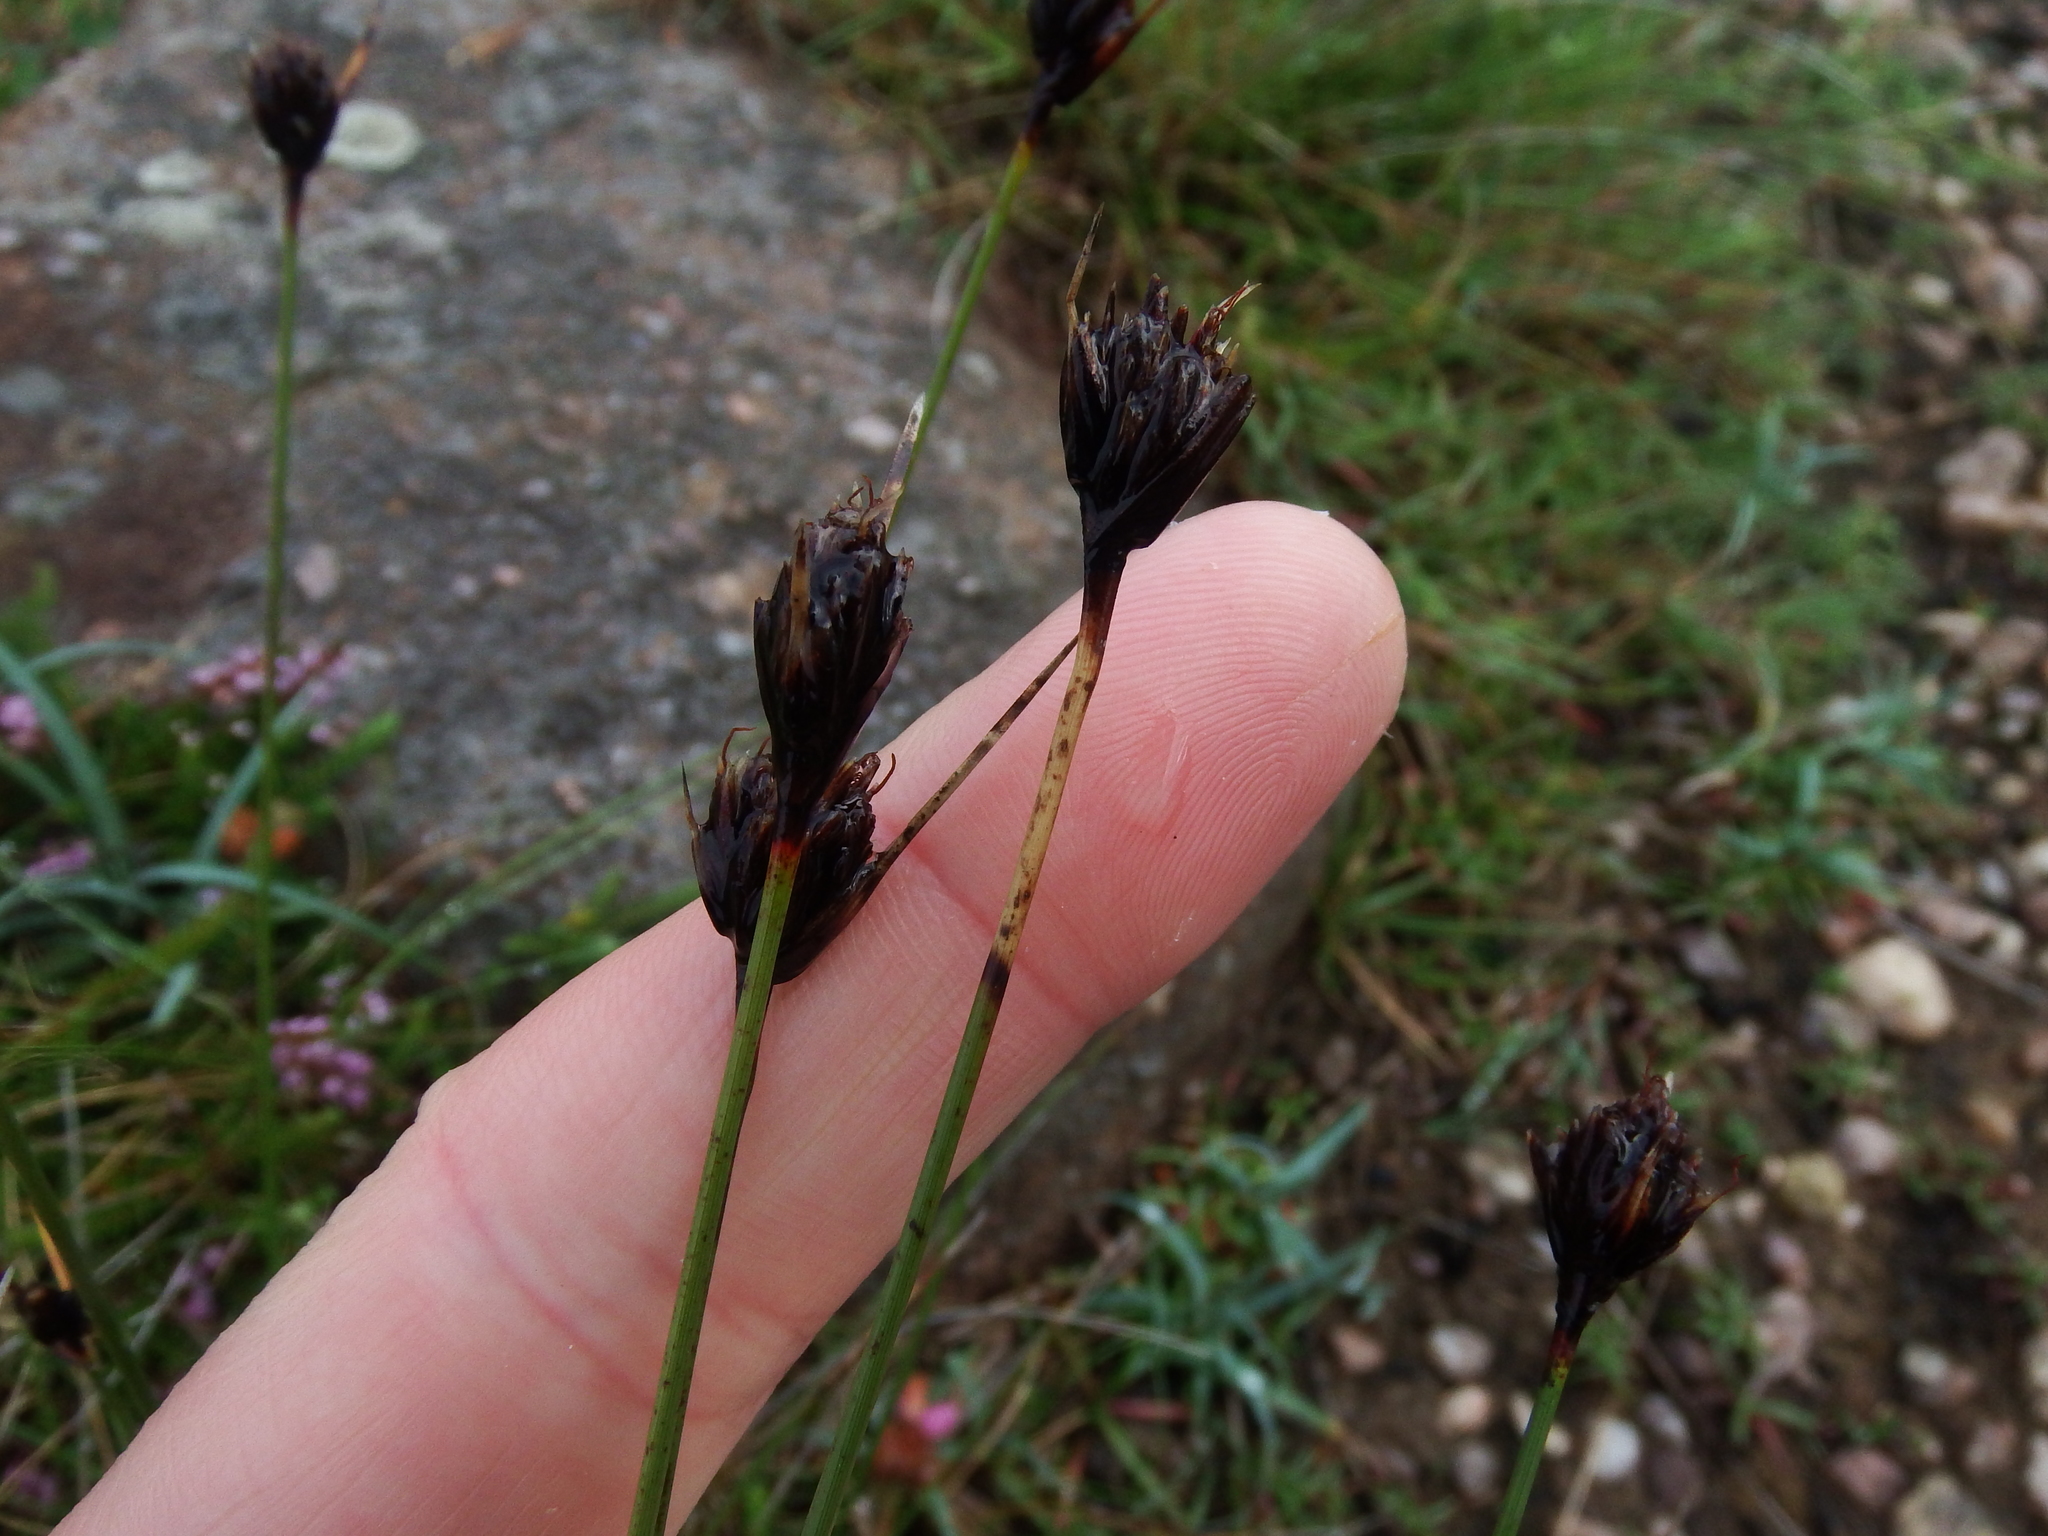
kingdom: Plantae
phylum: Tracheophyta
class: Liliopsida
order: Poales
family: Cyperaceae
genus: Schoenus
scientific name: Schoenus nigricans
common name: Black bog-rush
